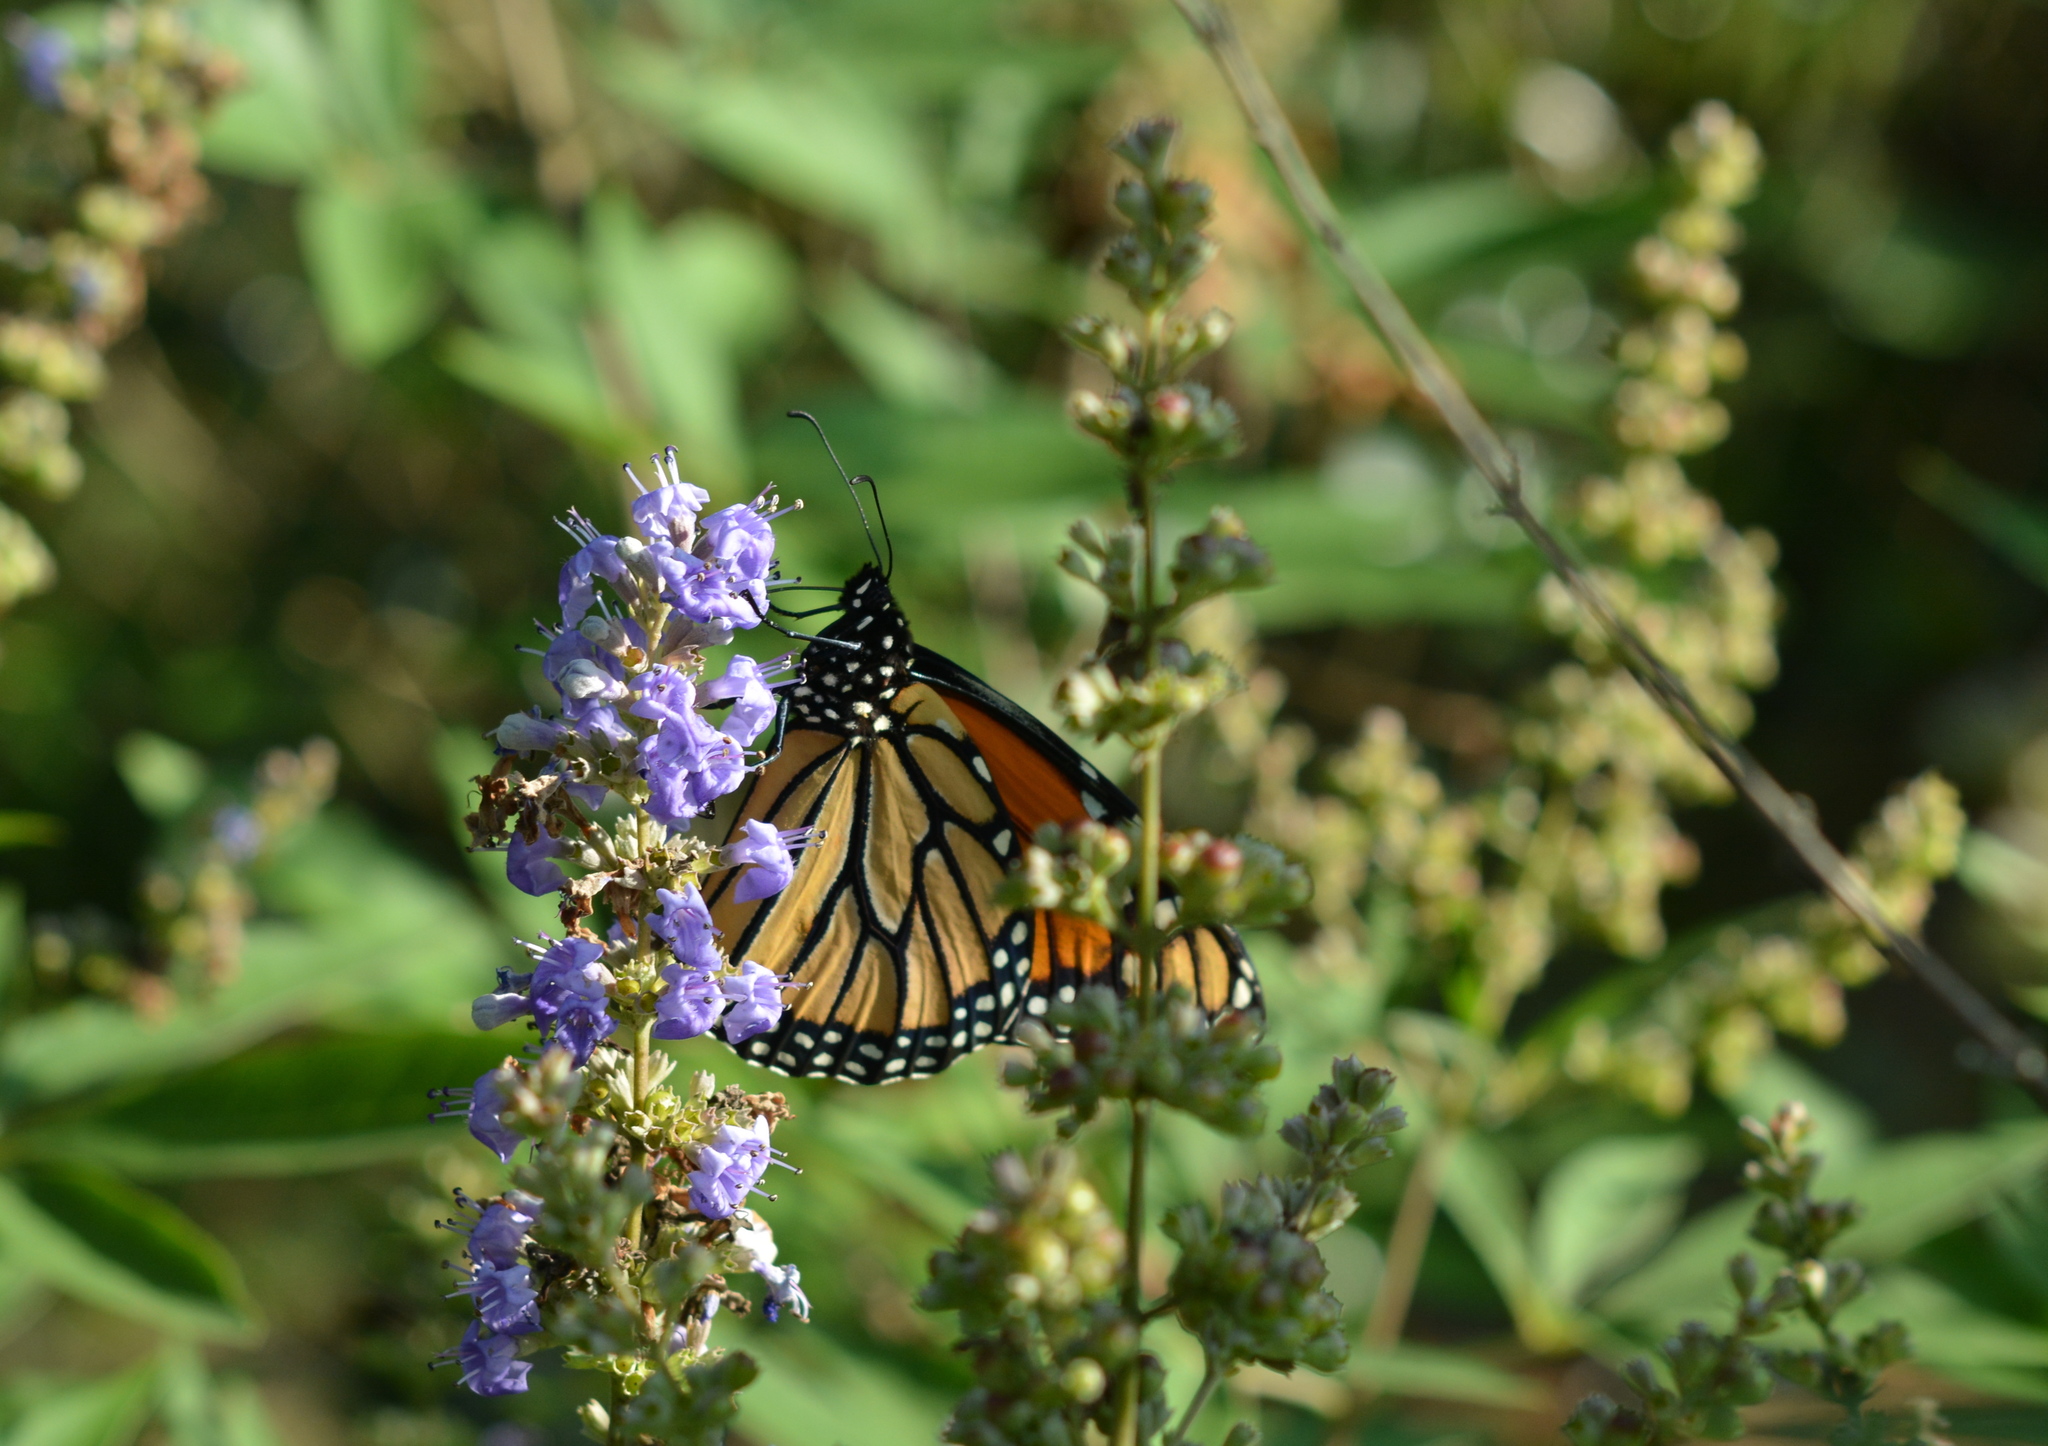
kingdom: Animalia
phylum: Arthropoda
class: Insecta
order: Lepidoptera
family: Nymphalidae
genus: Danaus
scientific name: Danaus plexippus
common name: Monarch
